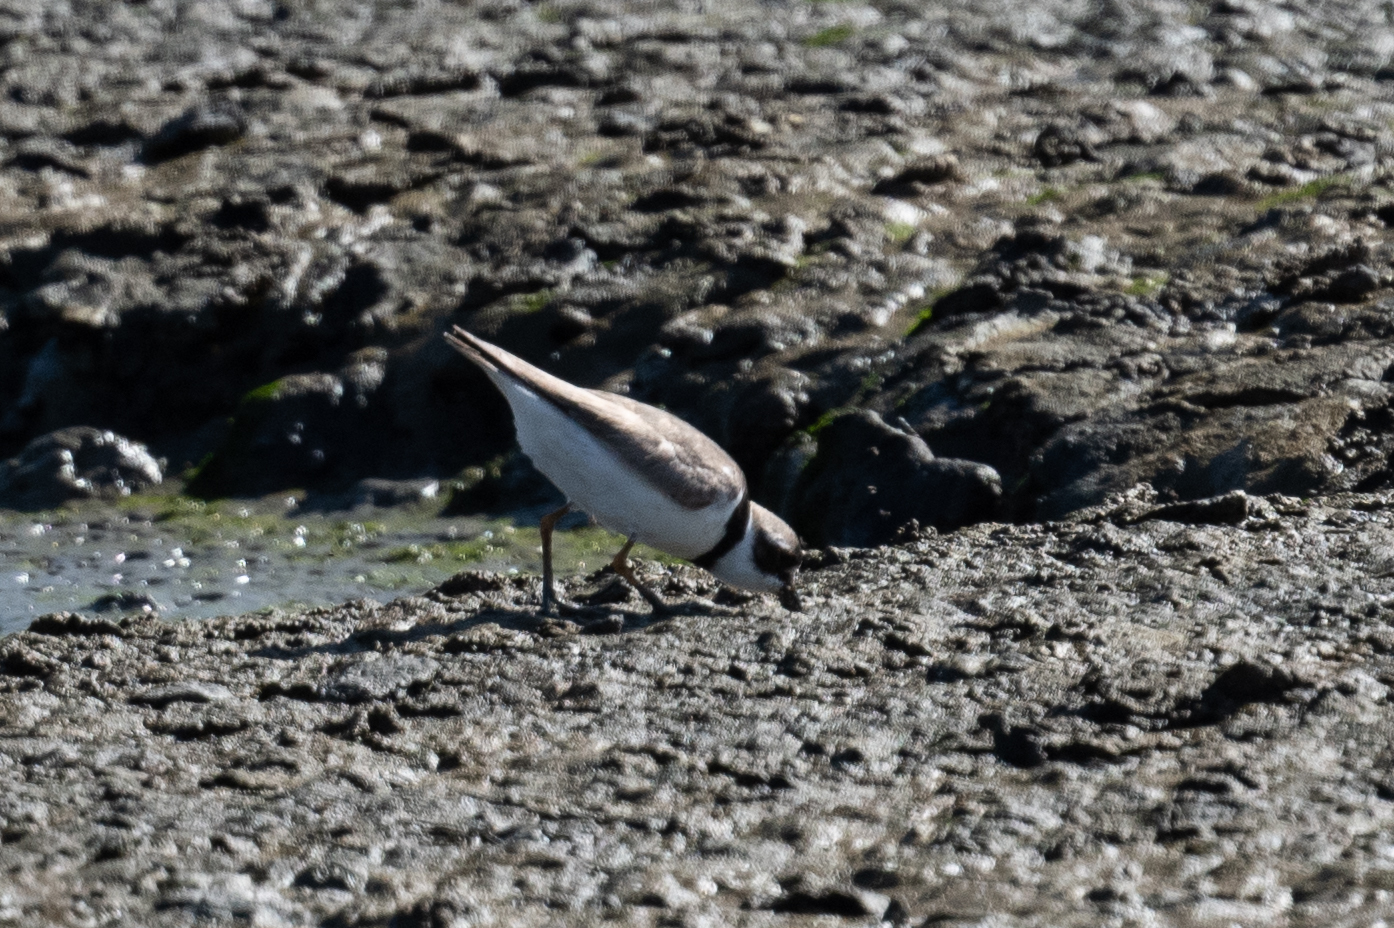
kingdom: Animalia
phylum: Chordata
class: Aves
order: Charadriiformes
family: Charadriidae
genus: Charadrius
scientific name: Charadrius semipalmatus
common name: Semipalmated plover
